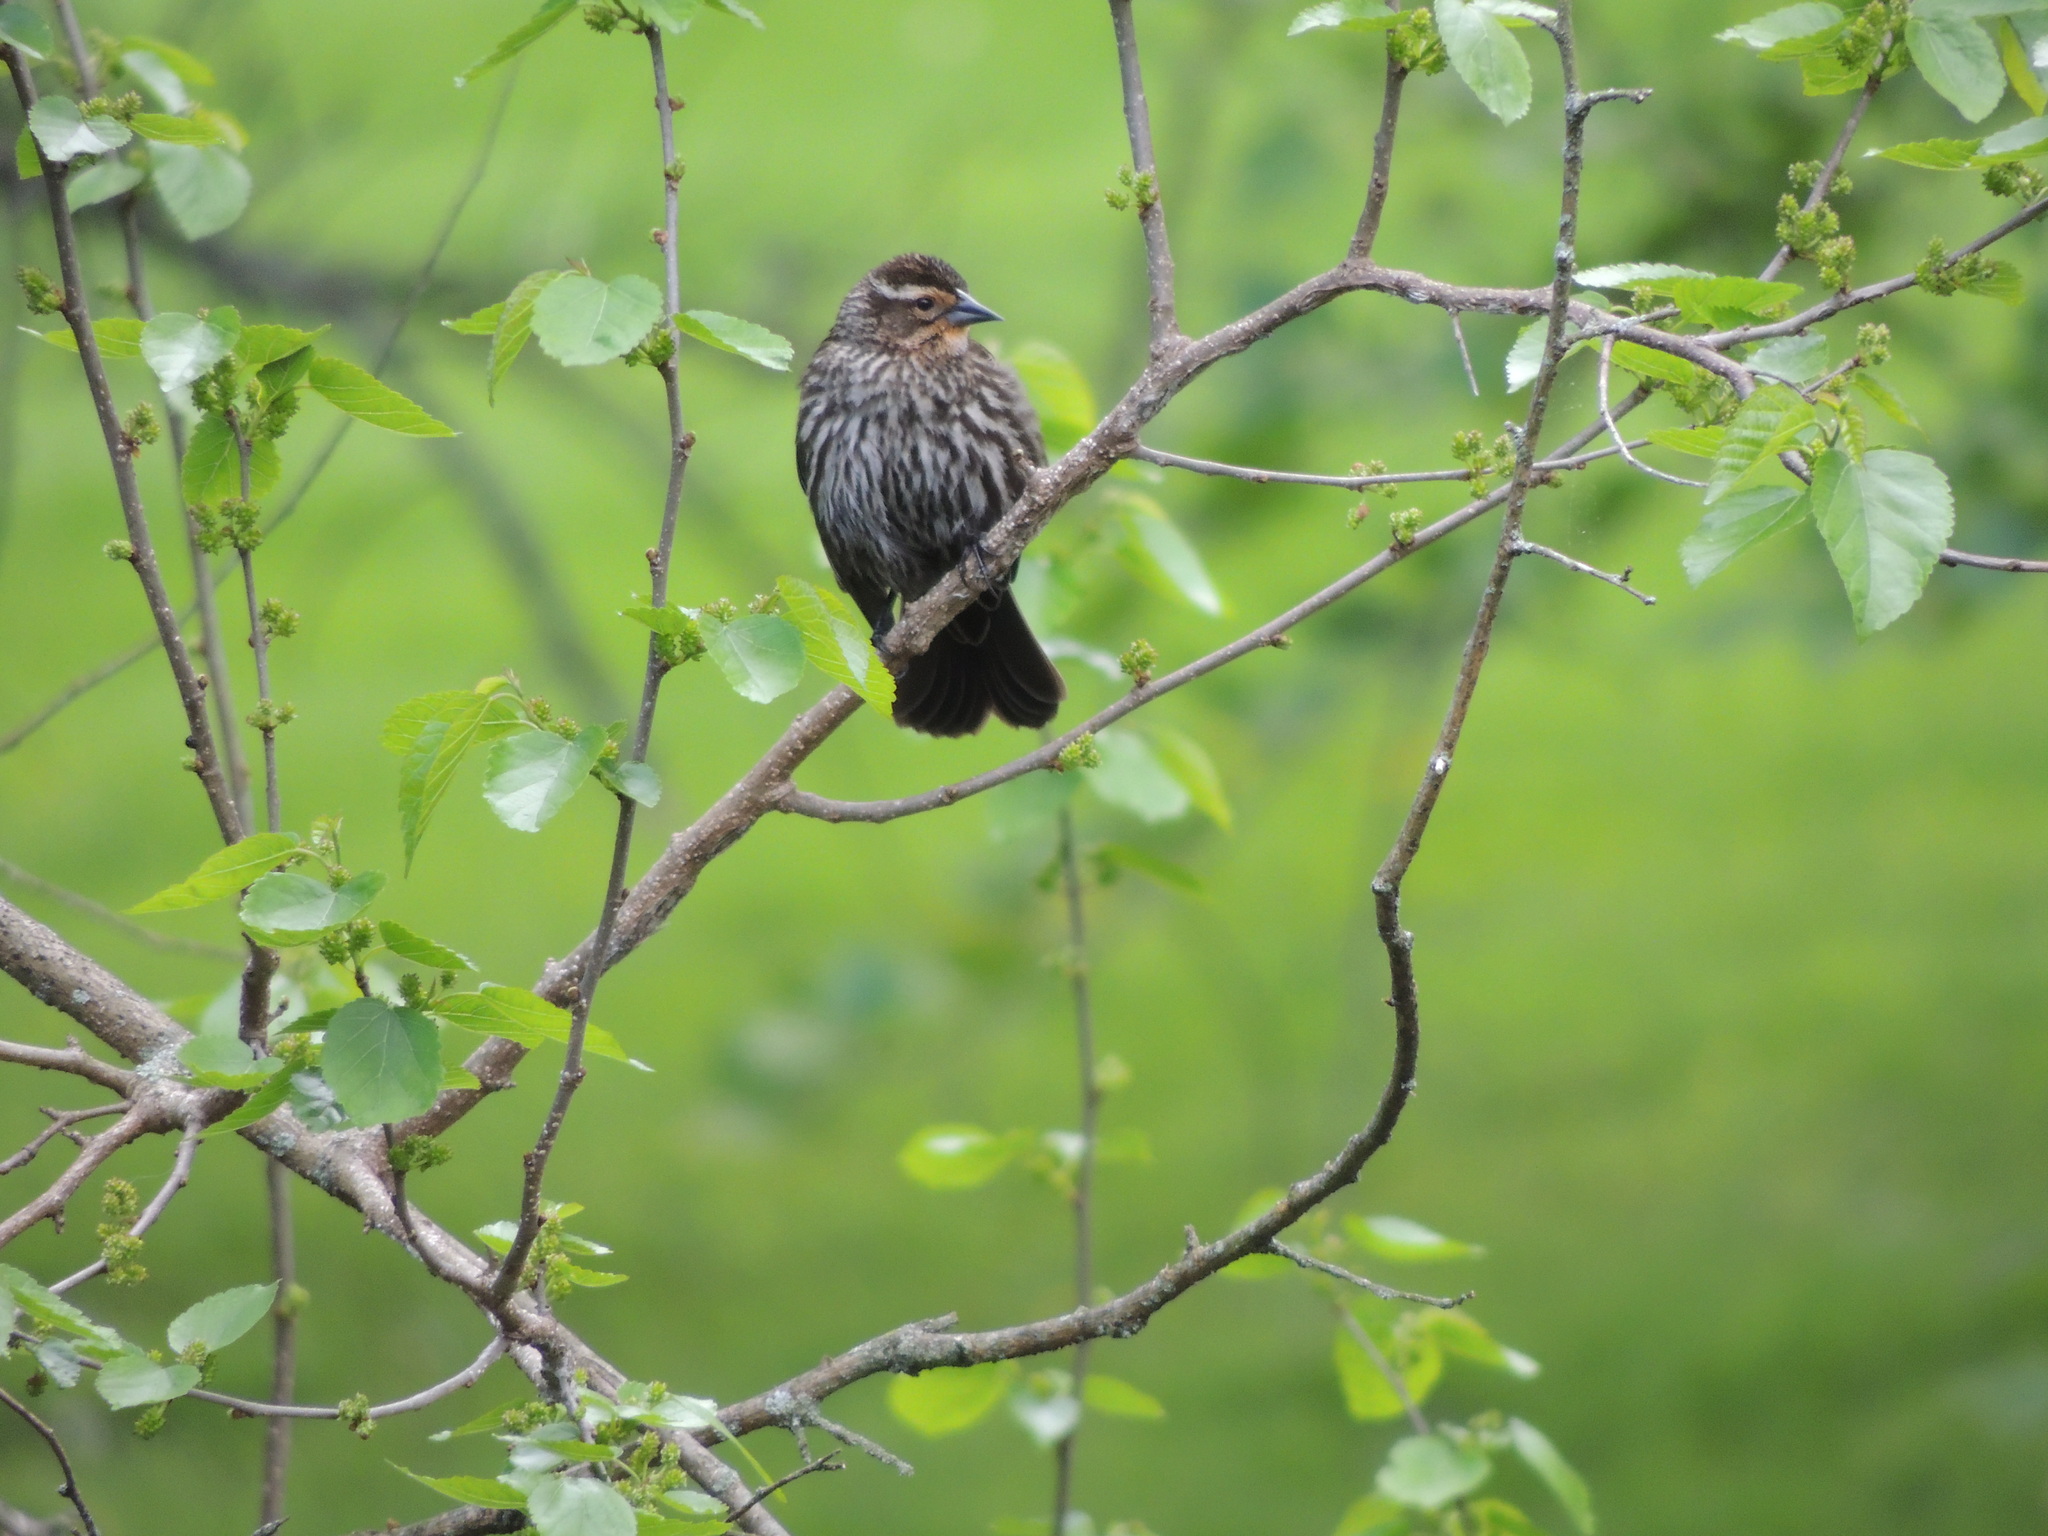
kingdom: Animalia
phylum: Chordata
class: Aves
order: Passeriformes
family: Icteridae
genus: Agelaius
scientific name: Agelaius phoeniceus
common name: Red-winged blackbird
